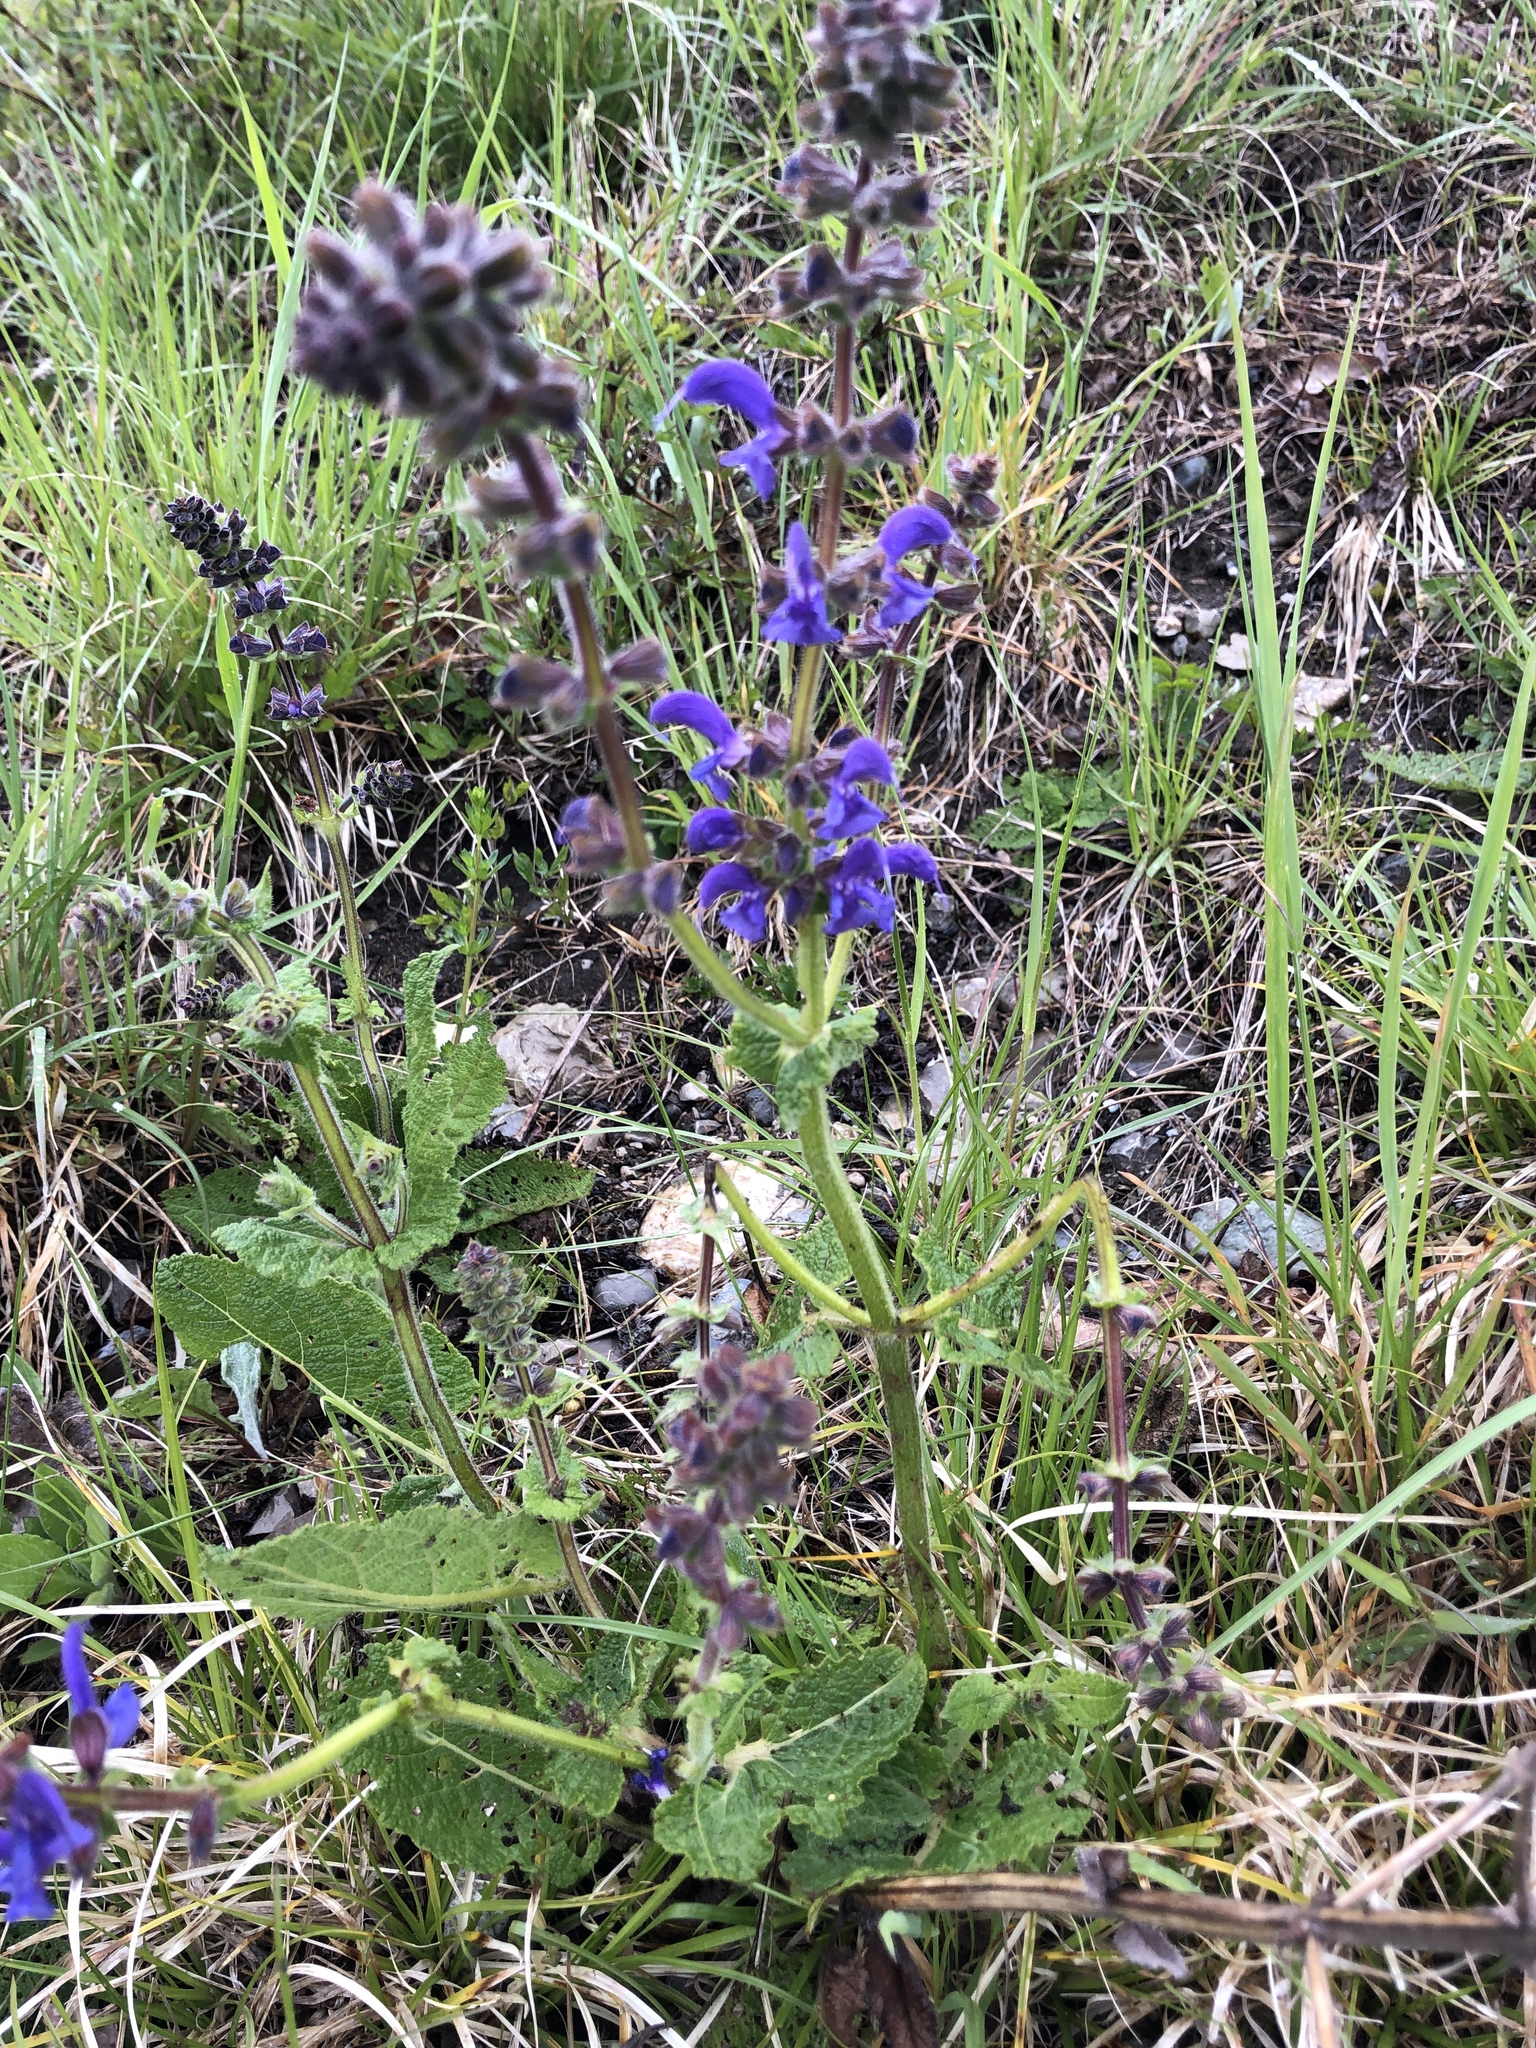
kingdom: Plantae
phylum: Tracheophyta
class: Magnoliopsida
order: Lamiales
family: Lamiaceae
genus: Salvia
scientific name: Salvia pratensis
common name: Meadow sage
